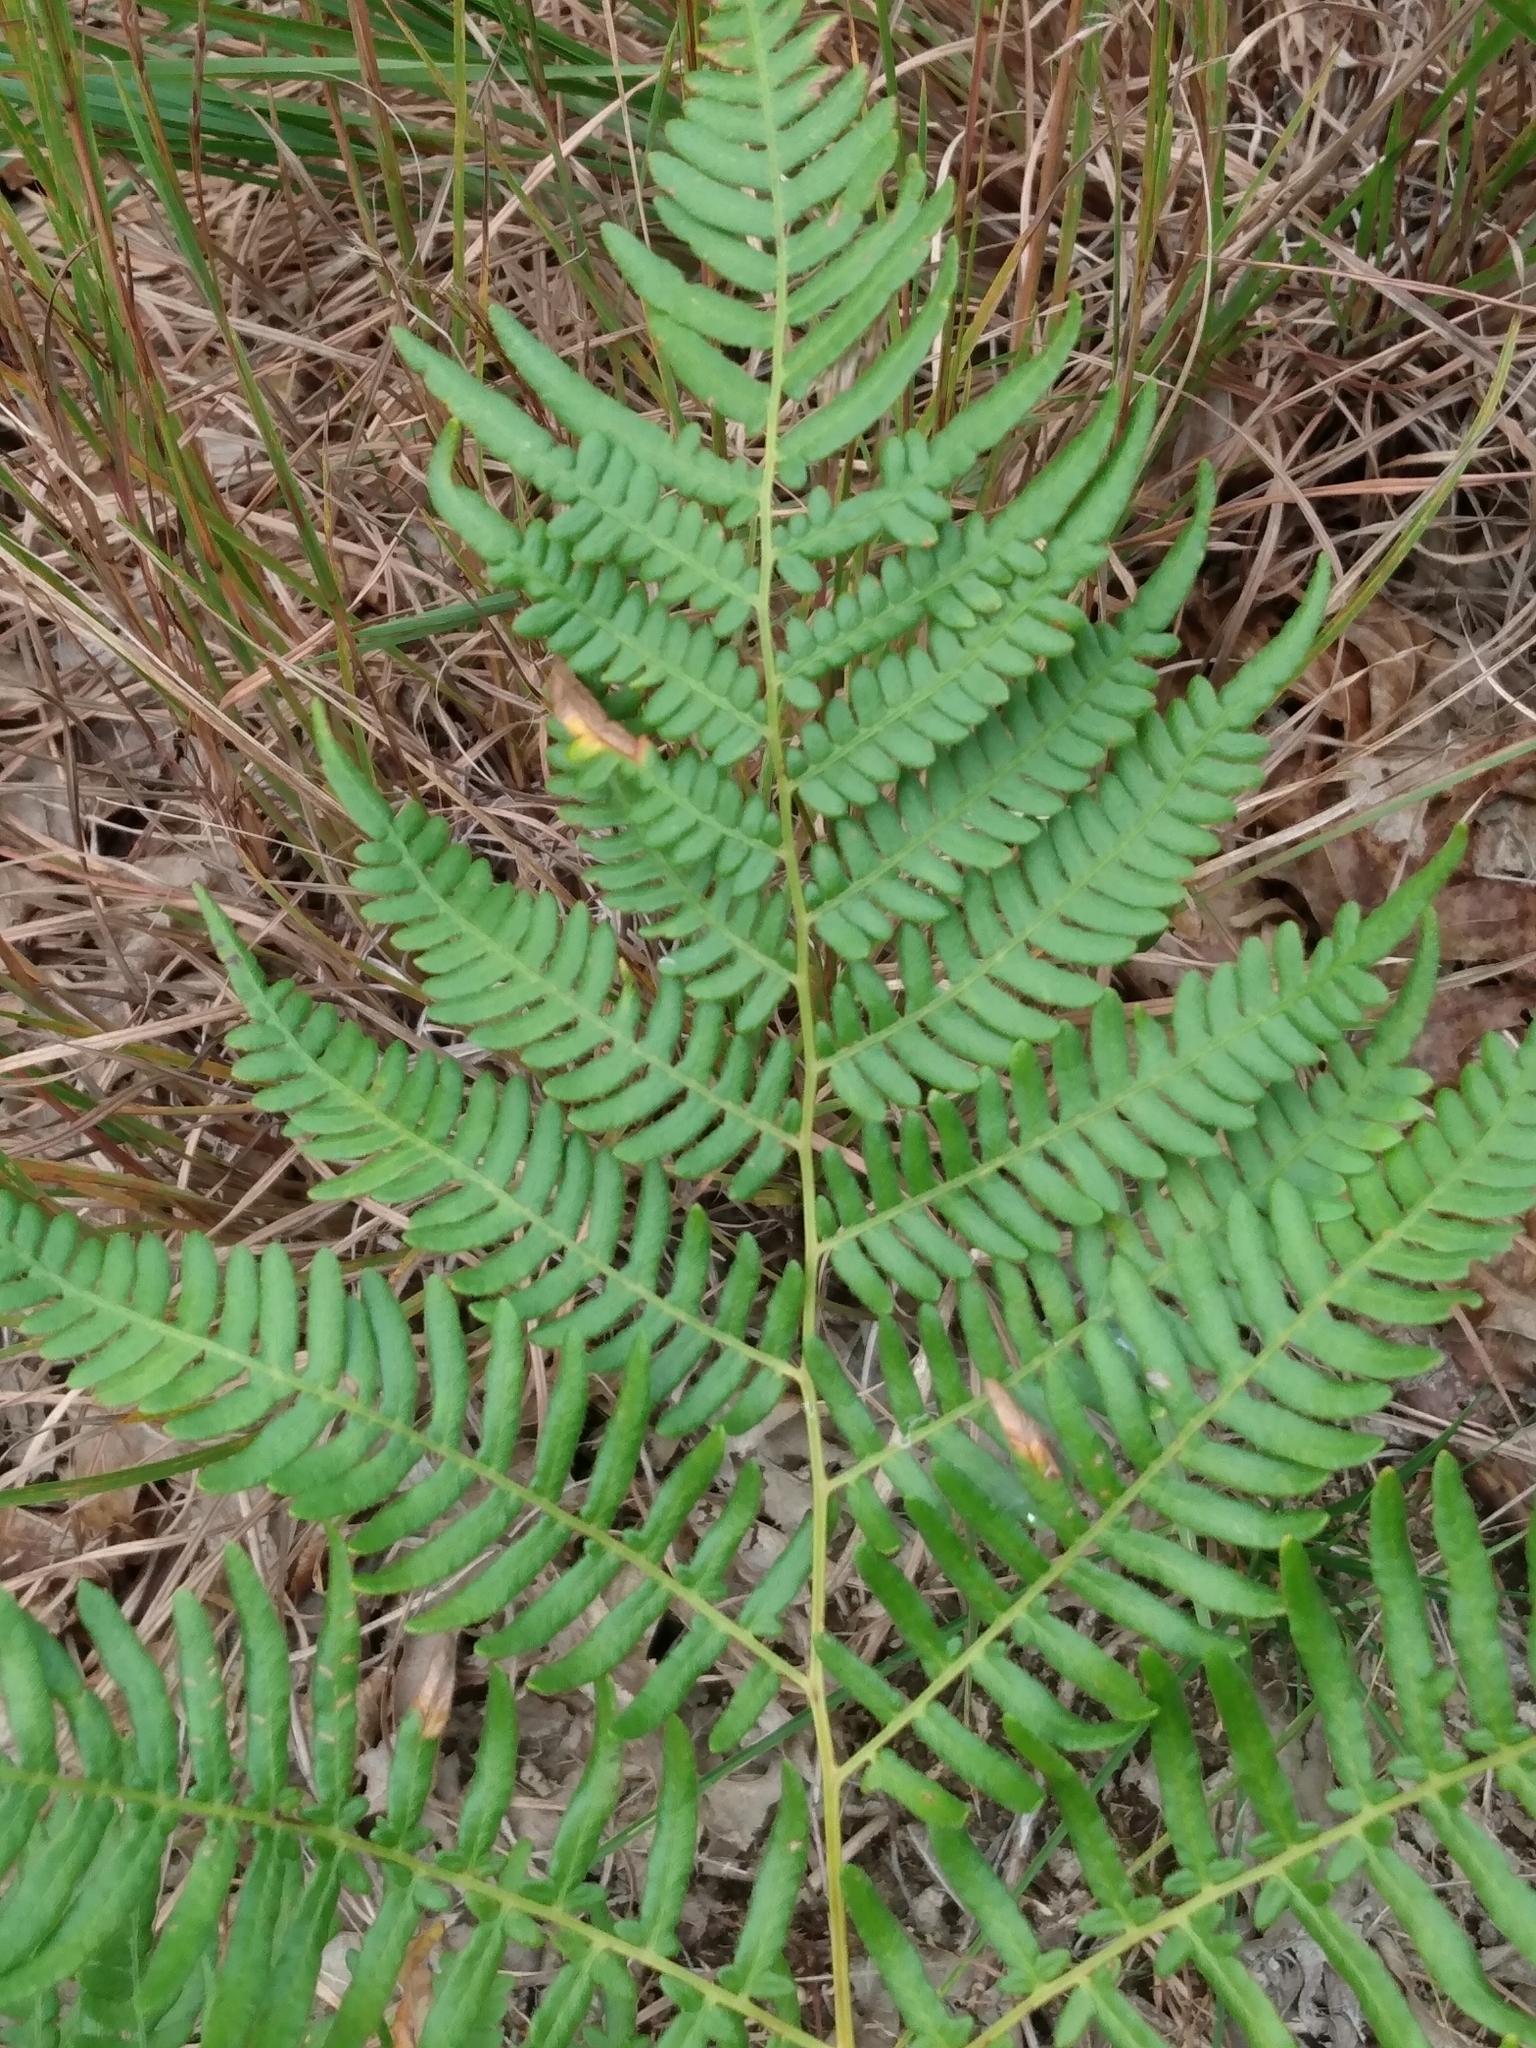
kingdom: Plantae
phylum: Tracheophyta
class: Polypodiopsida
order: Polypodiales
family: Dennstaedtiaceae
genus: Pteridium
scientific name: Pteridium aquilinum
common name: Bracken
